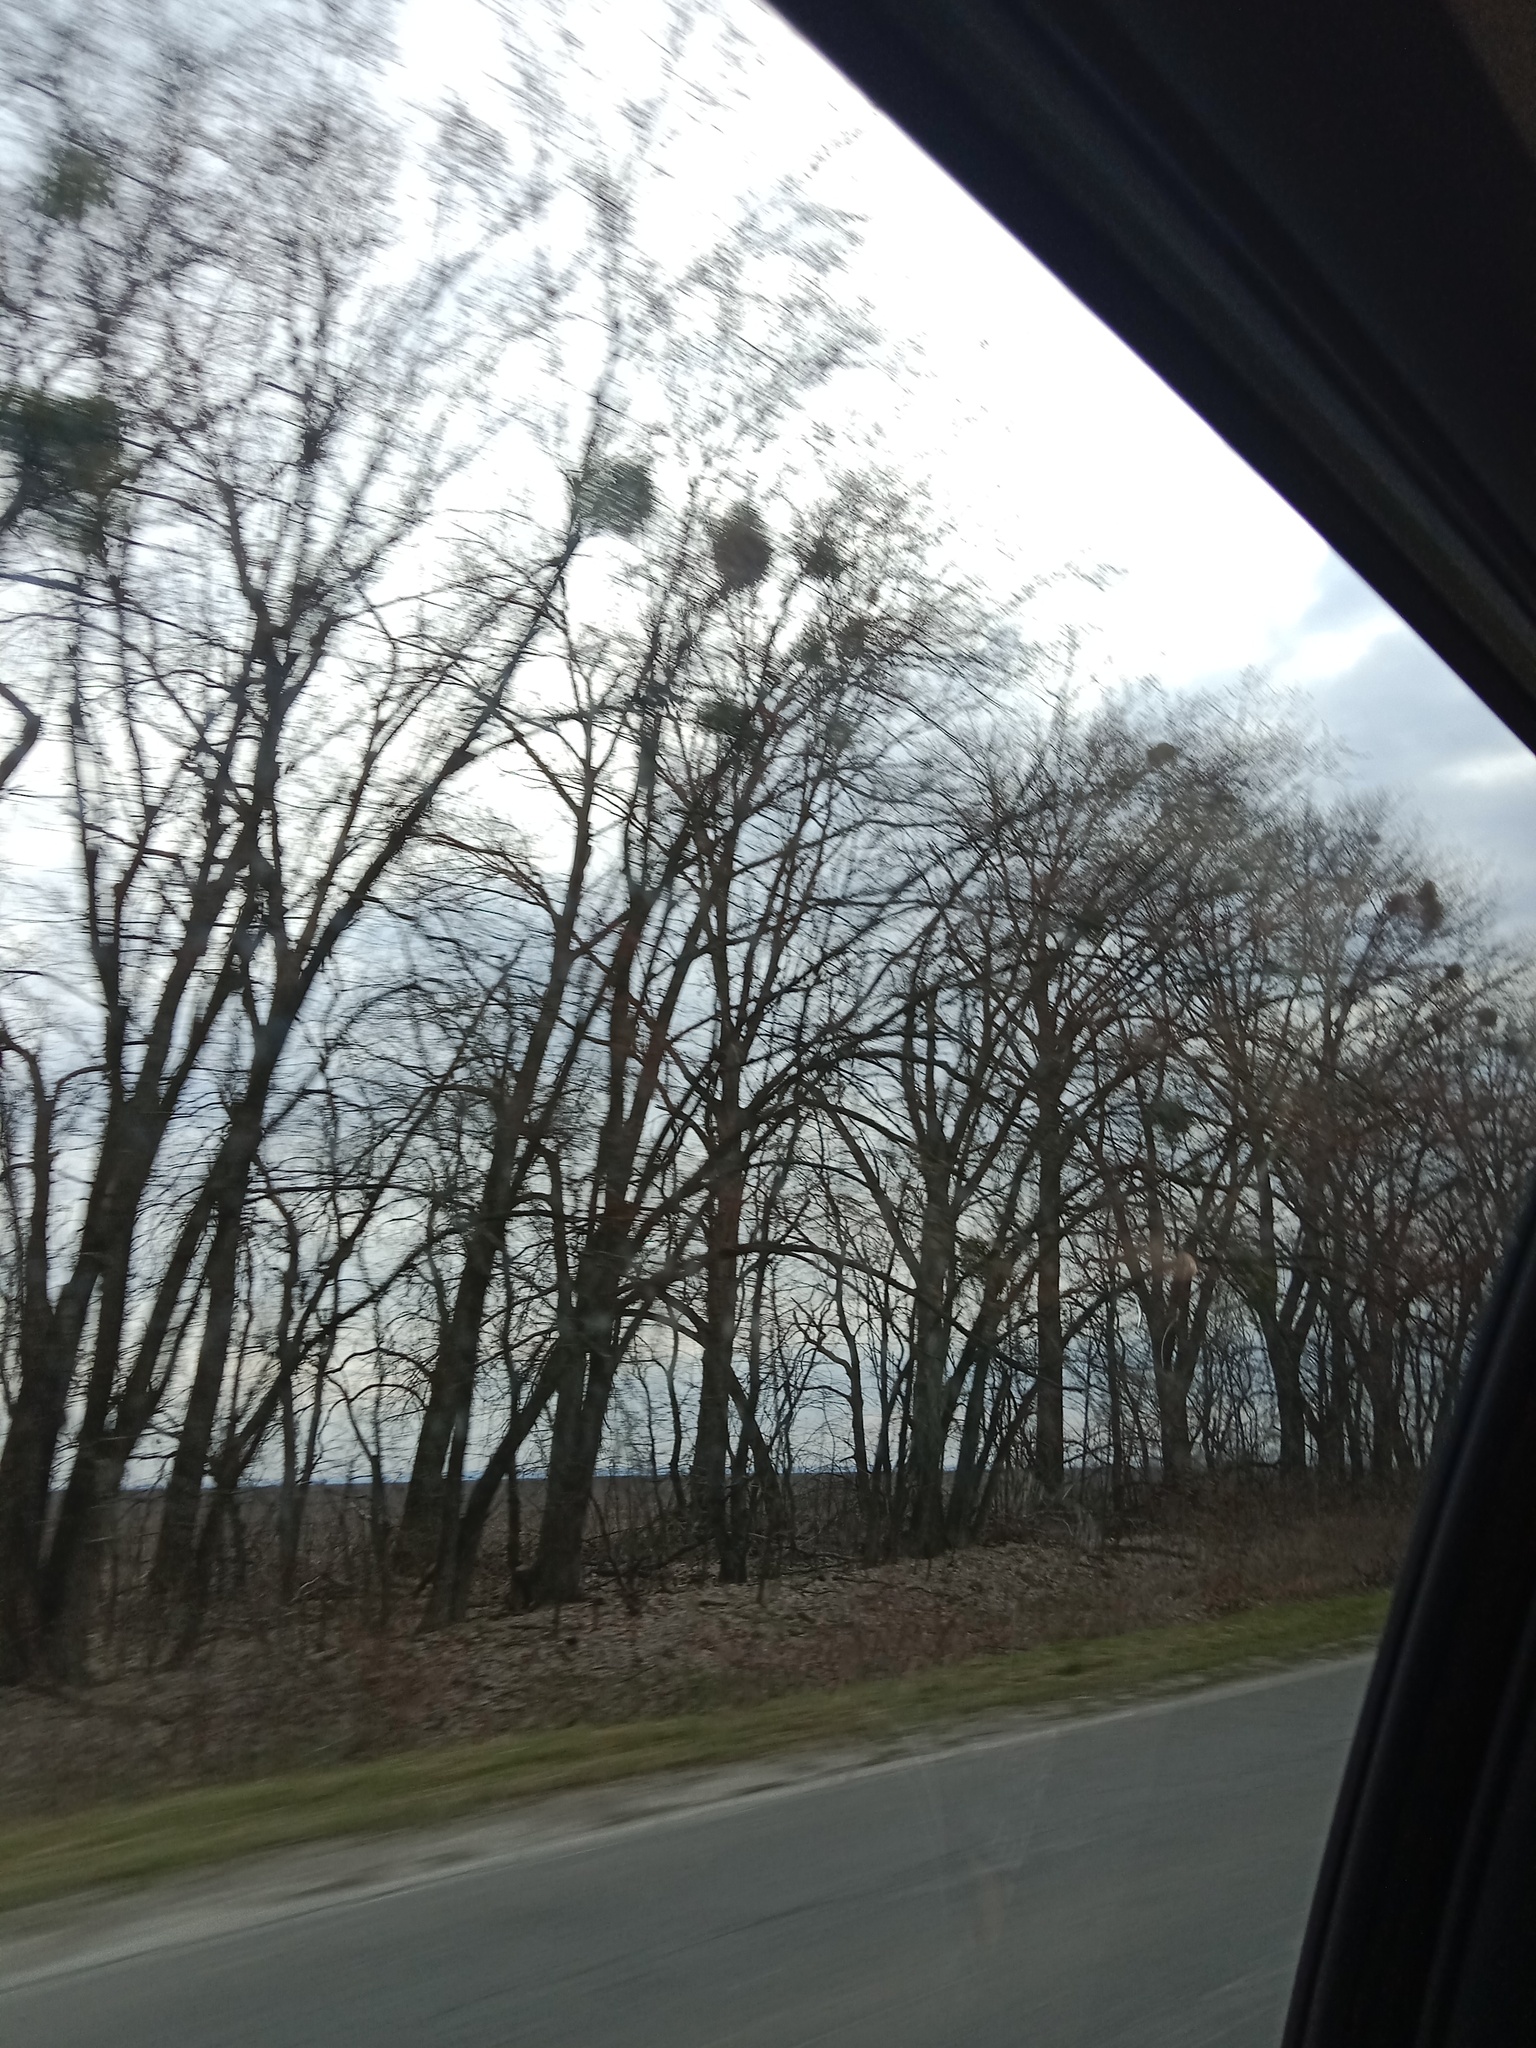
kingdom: Plantae
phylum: Tracheophyta
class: Magnoliopsida
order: Santalales
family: Viscaceae
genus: Viscum
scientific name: Viscum album
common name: Mistletoe
